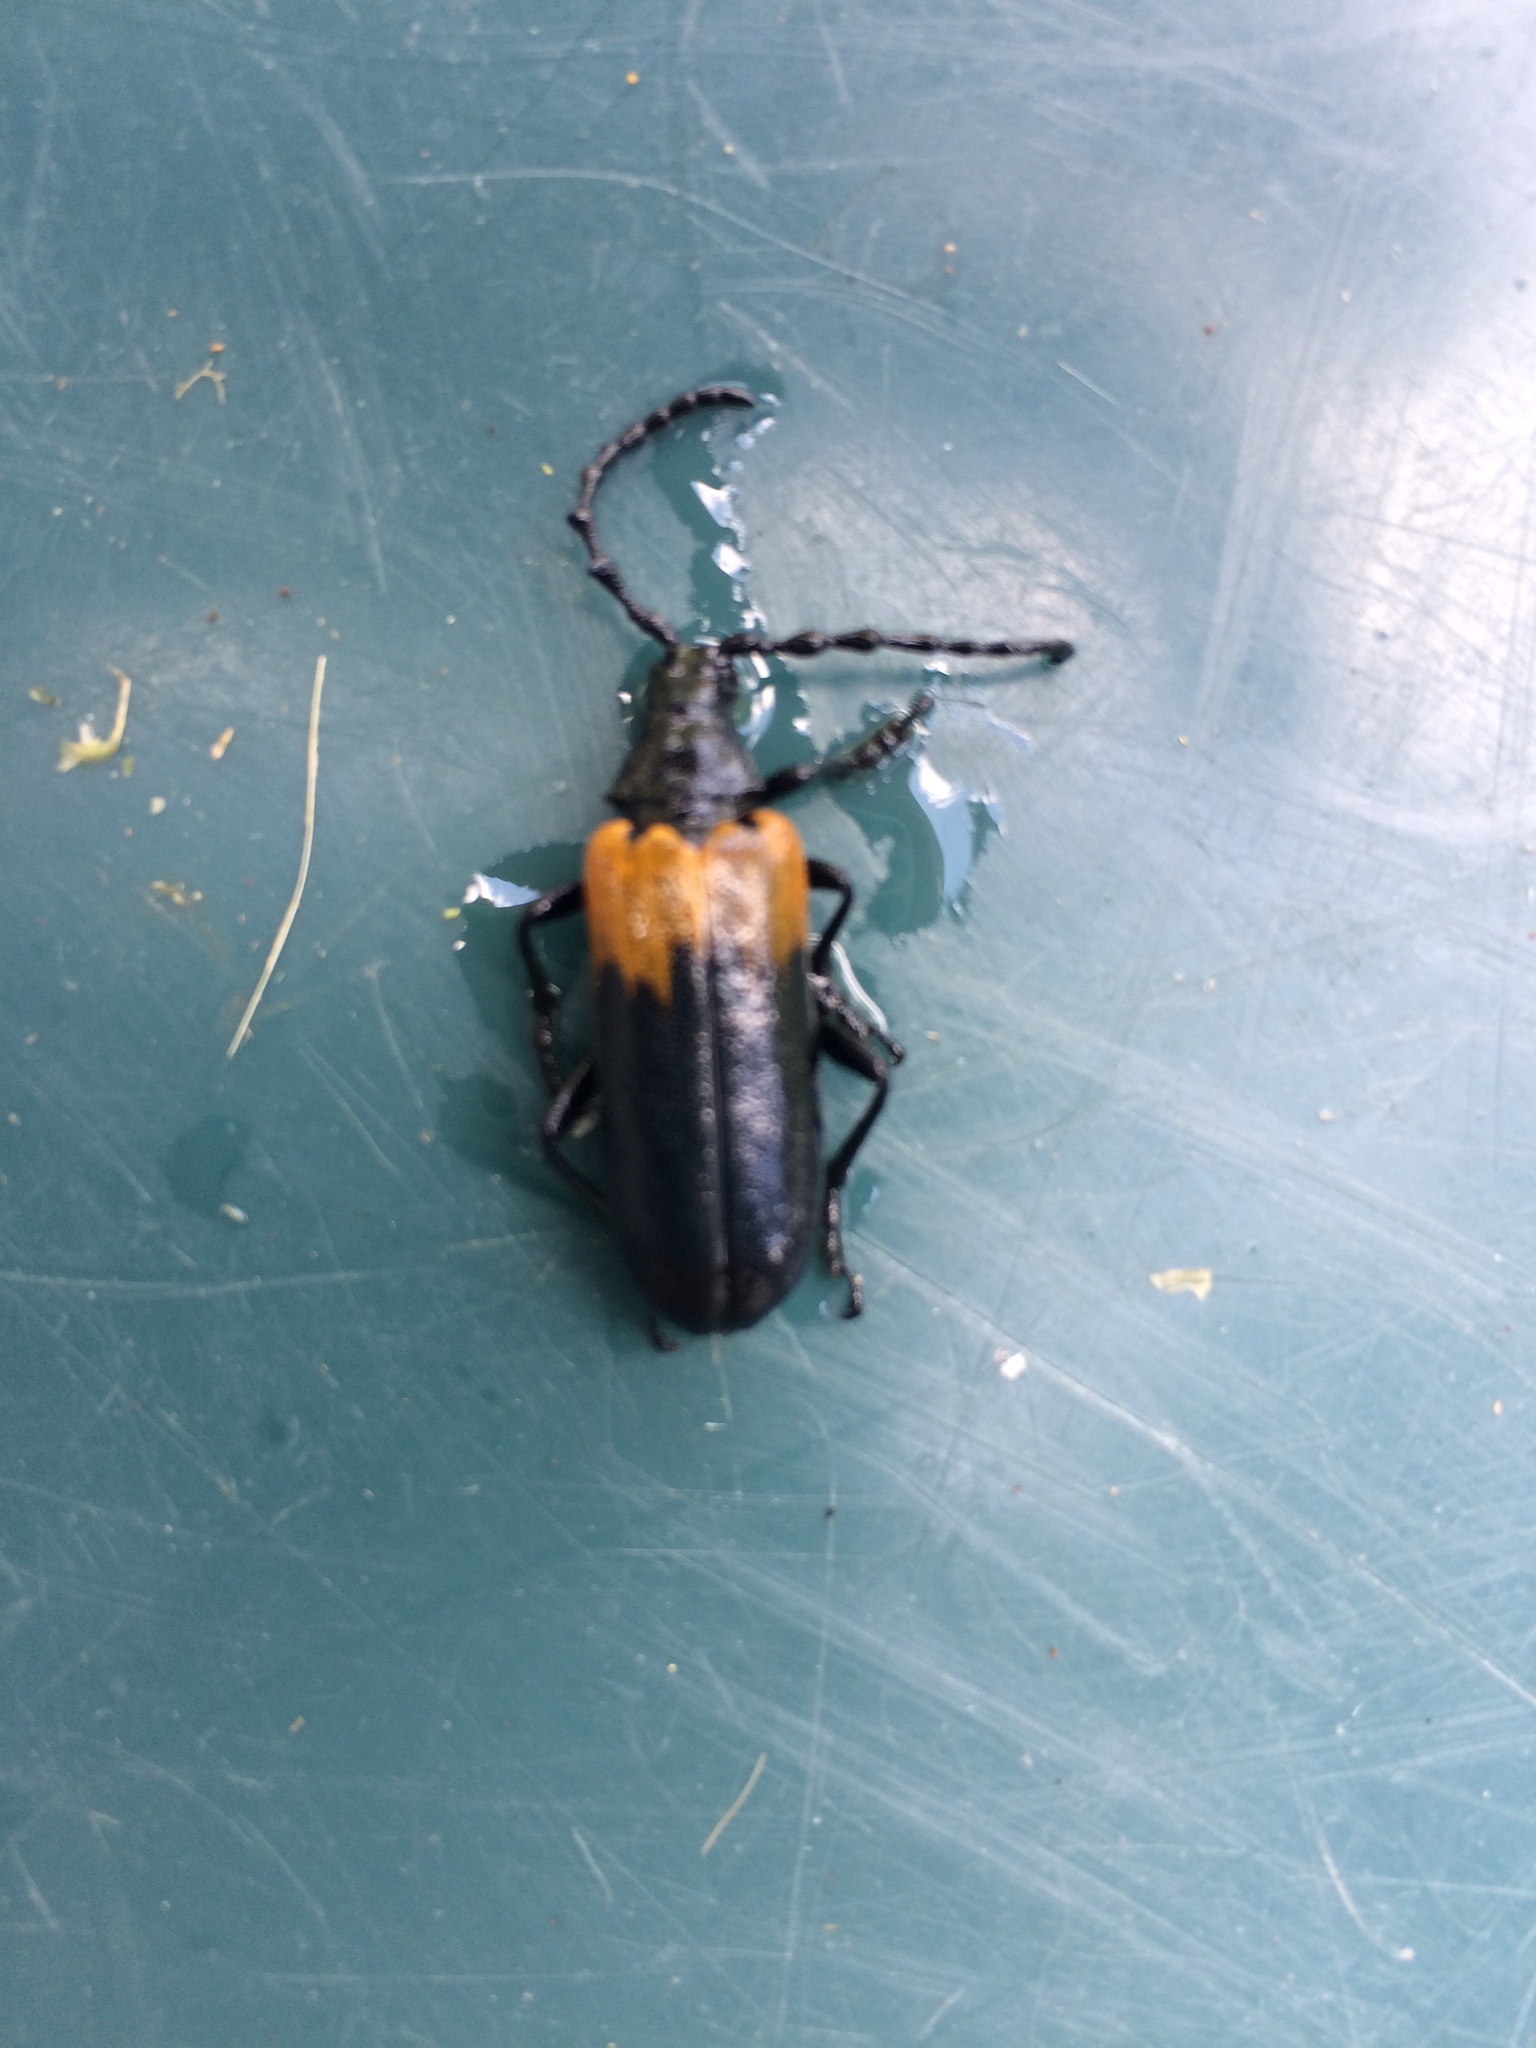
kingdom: Animalia
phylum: Arthropoda
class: Insecta
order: Coleoptera
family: Cerambycidae
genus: Desmocerus
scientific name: Desmocerus palliatus
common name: Eastern elderberry borer
